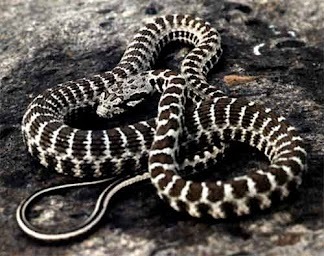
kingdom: Animalia
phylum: Chordata
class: Squamata
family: Colubridae
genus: Hemorrhois
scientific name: Hemorrhois nummifer
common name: Asian racer
